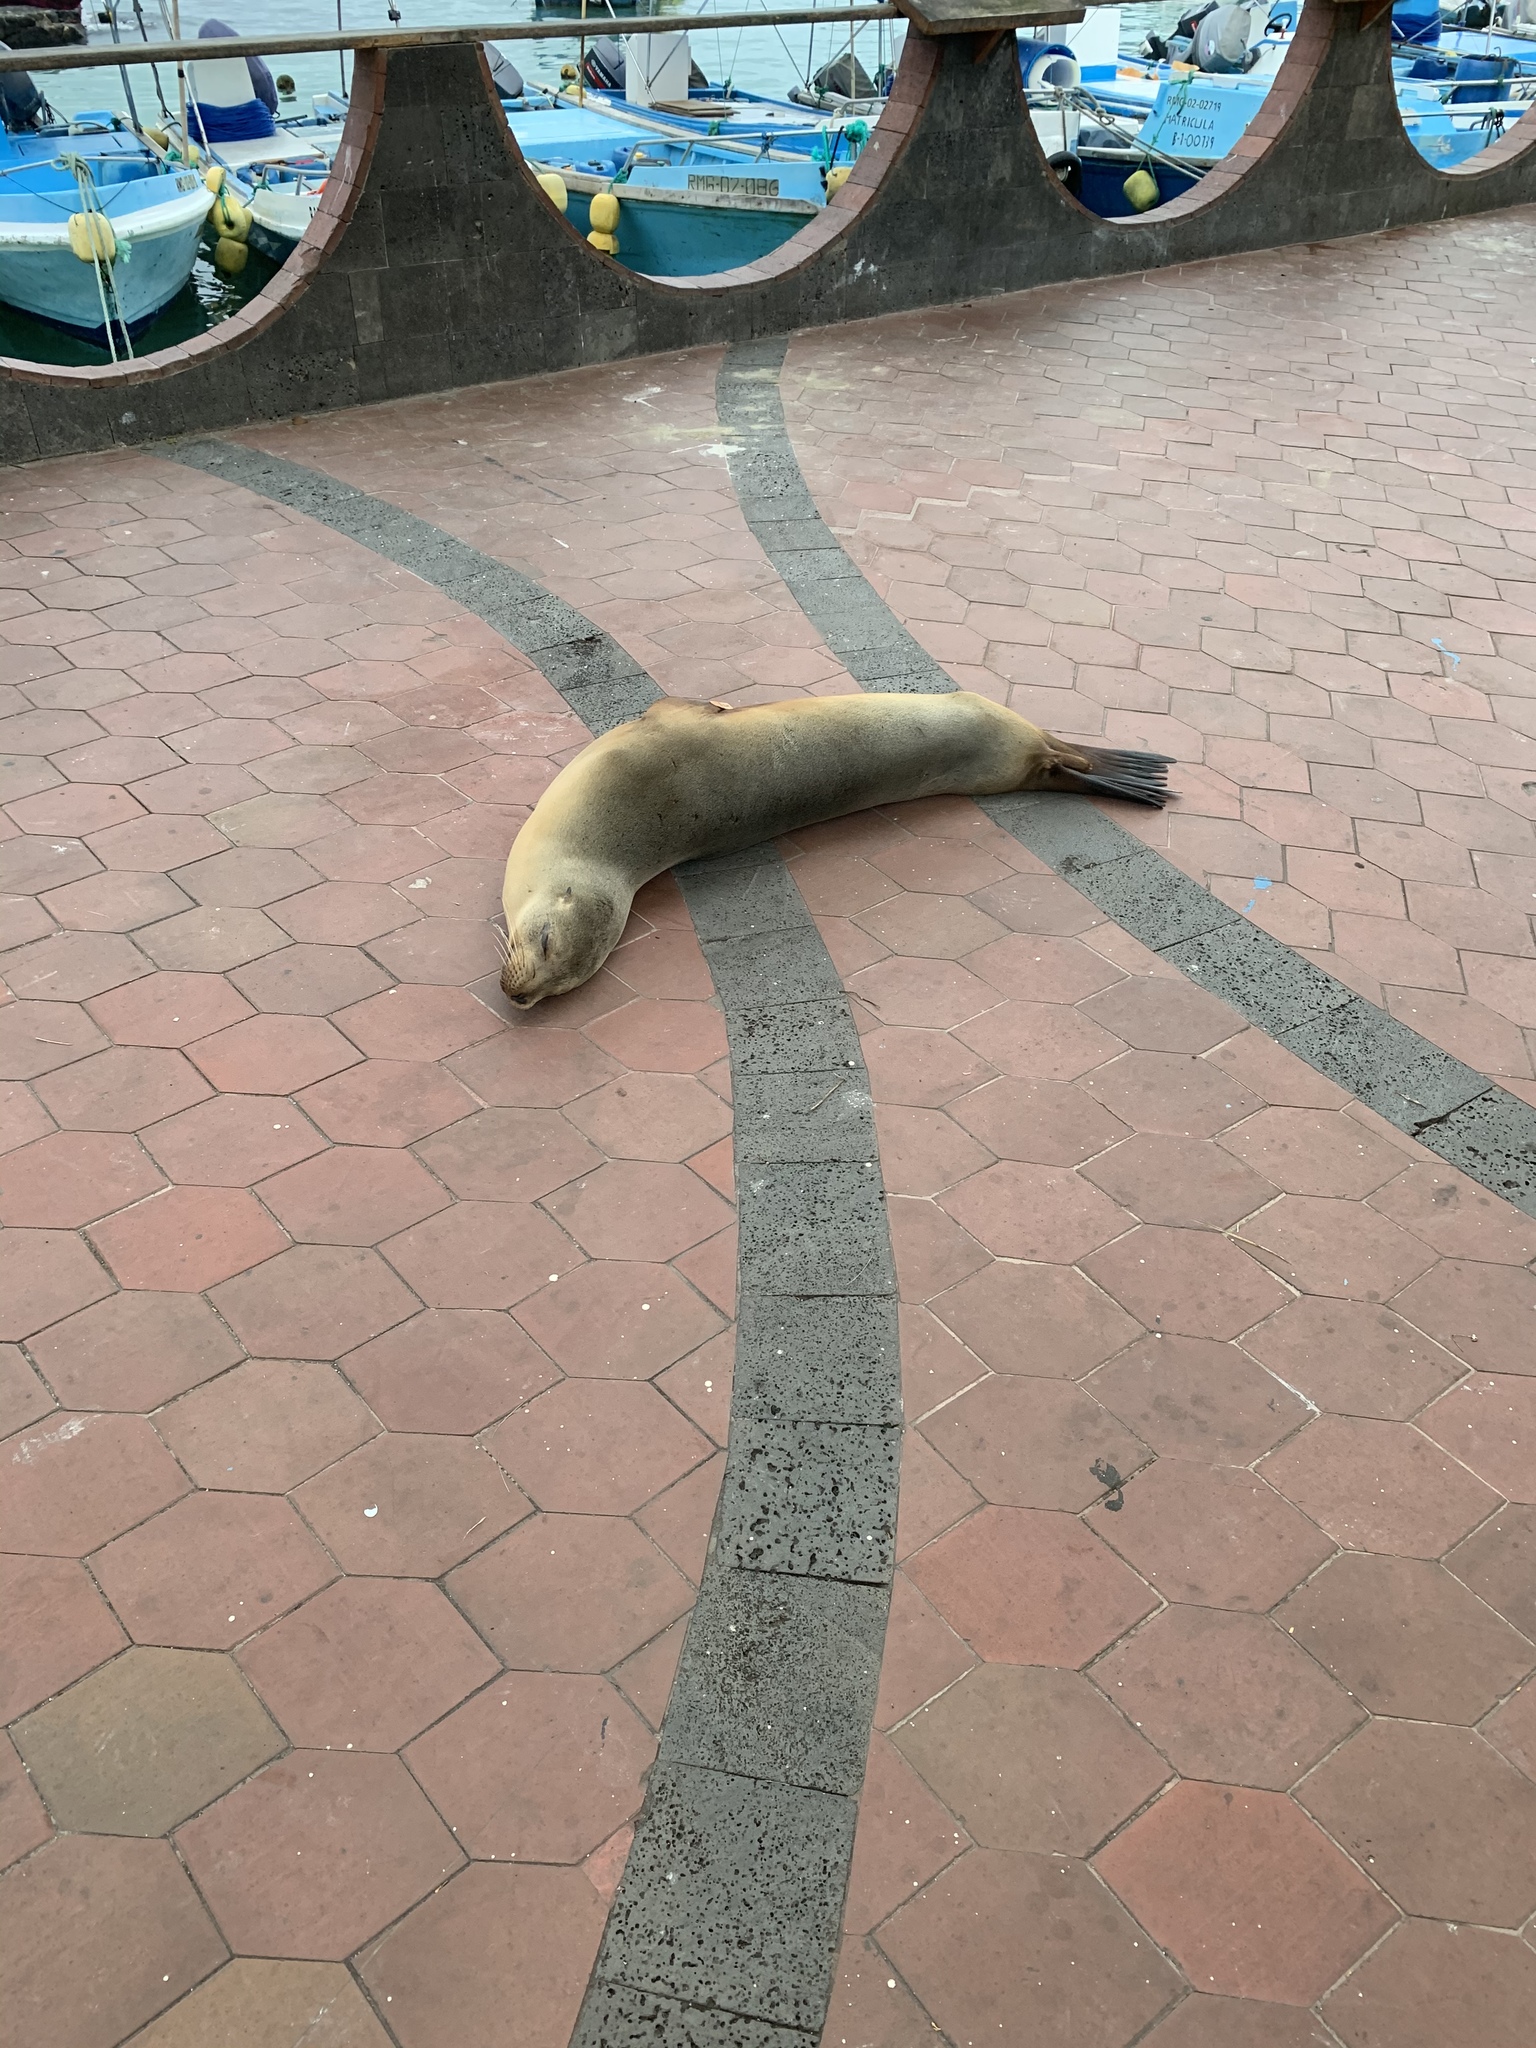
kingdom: Animalia
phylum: Chordata
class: Mammalia
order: Carnivora
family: Otariidae
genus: Zalophus
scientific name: Zalophus wollebaeki
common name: Galapagos sea lion
